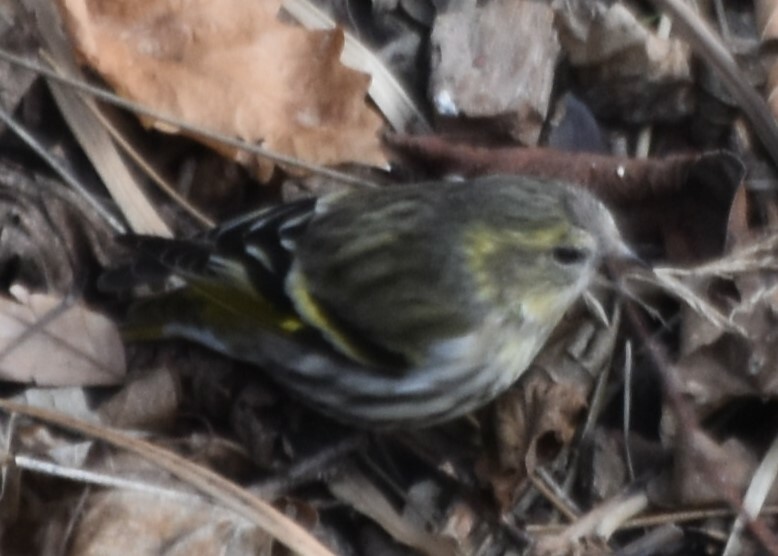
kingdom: Animalia
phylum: Chordata
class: Aves
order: Passeriformes
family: Fringillidae
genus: Spinus
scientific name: Spinus spinus
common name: Eurasian siskin
